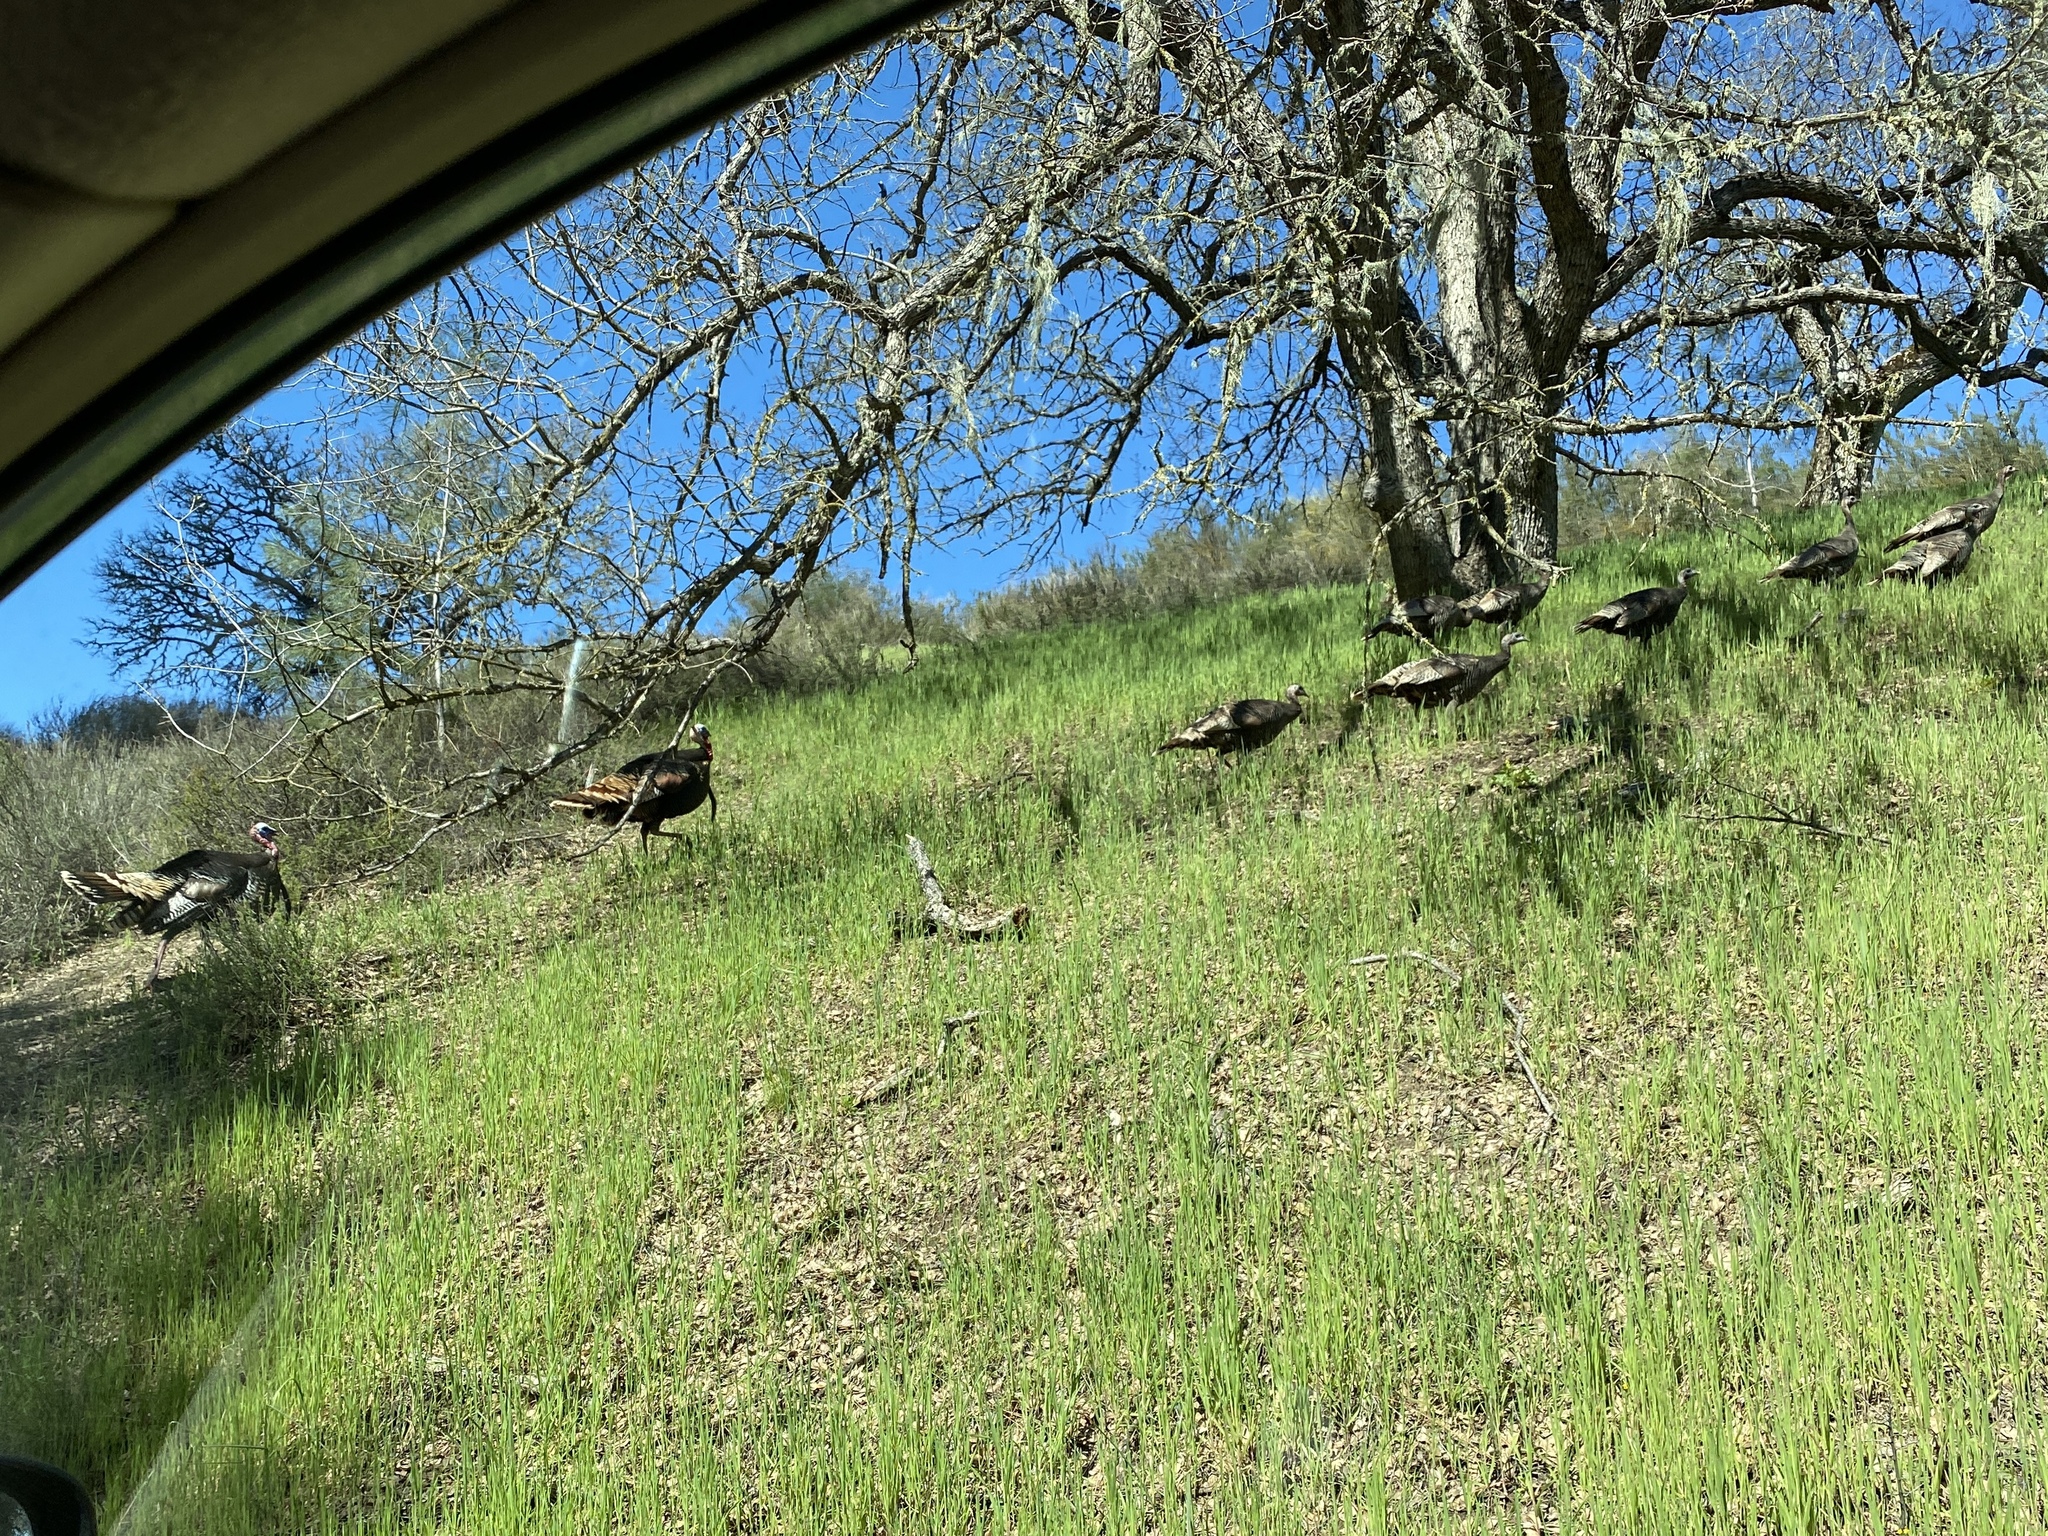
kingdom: Animalia
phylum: Chordata
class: Aves
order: Galliformes
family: Phasianidae
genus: Meleagris
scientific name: Meleagris gallopavo
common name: Wild turkey
